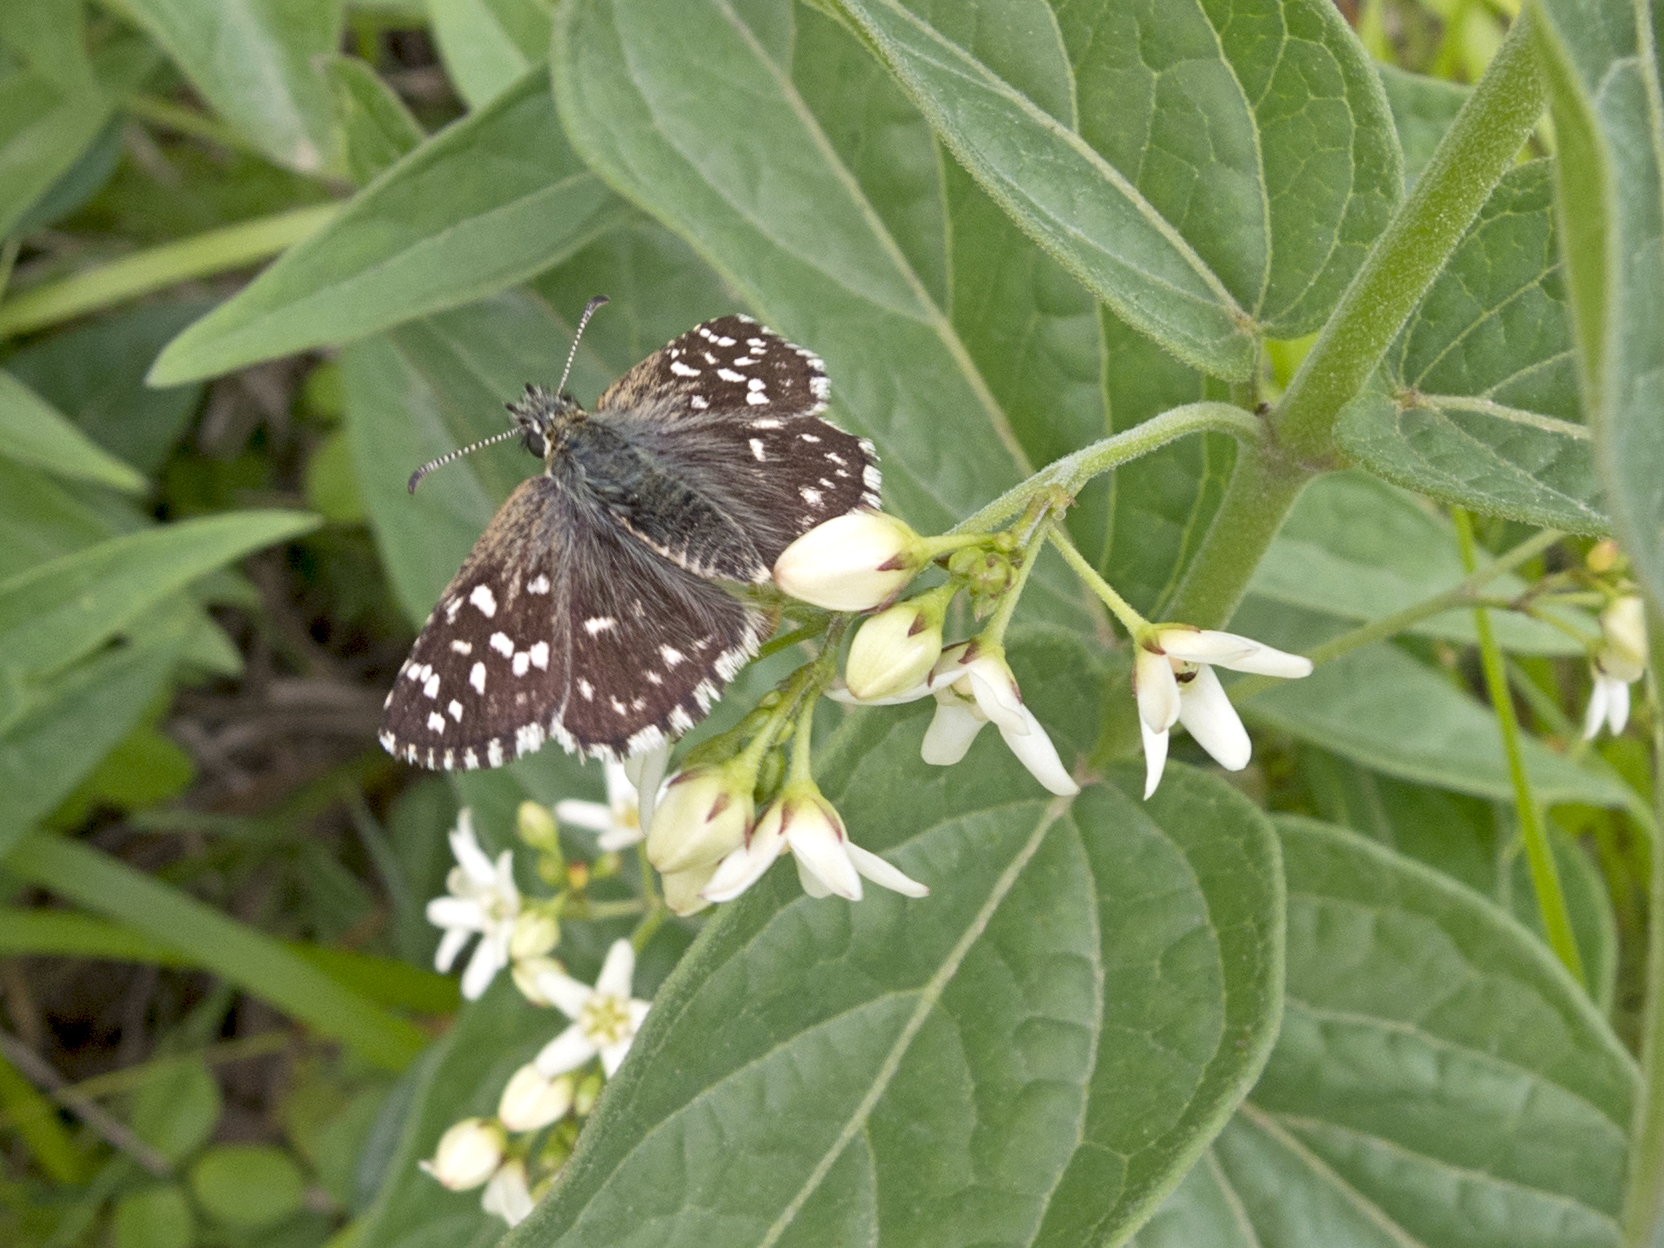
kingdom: Animalia
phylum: Arthropoda
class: Insecta
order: Lepidoptera
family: Hesperiidae
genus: Pyrgus
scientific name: Pyrgus malvae
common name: Grizzled skipper
